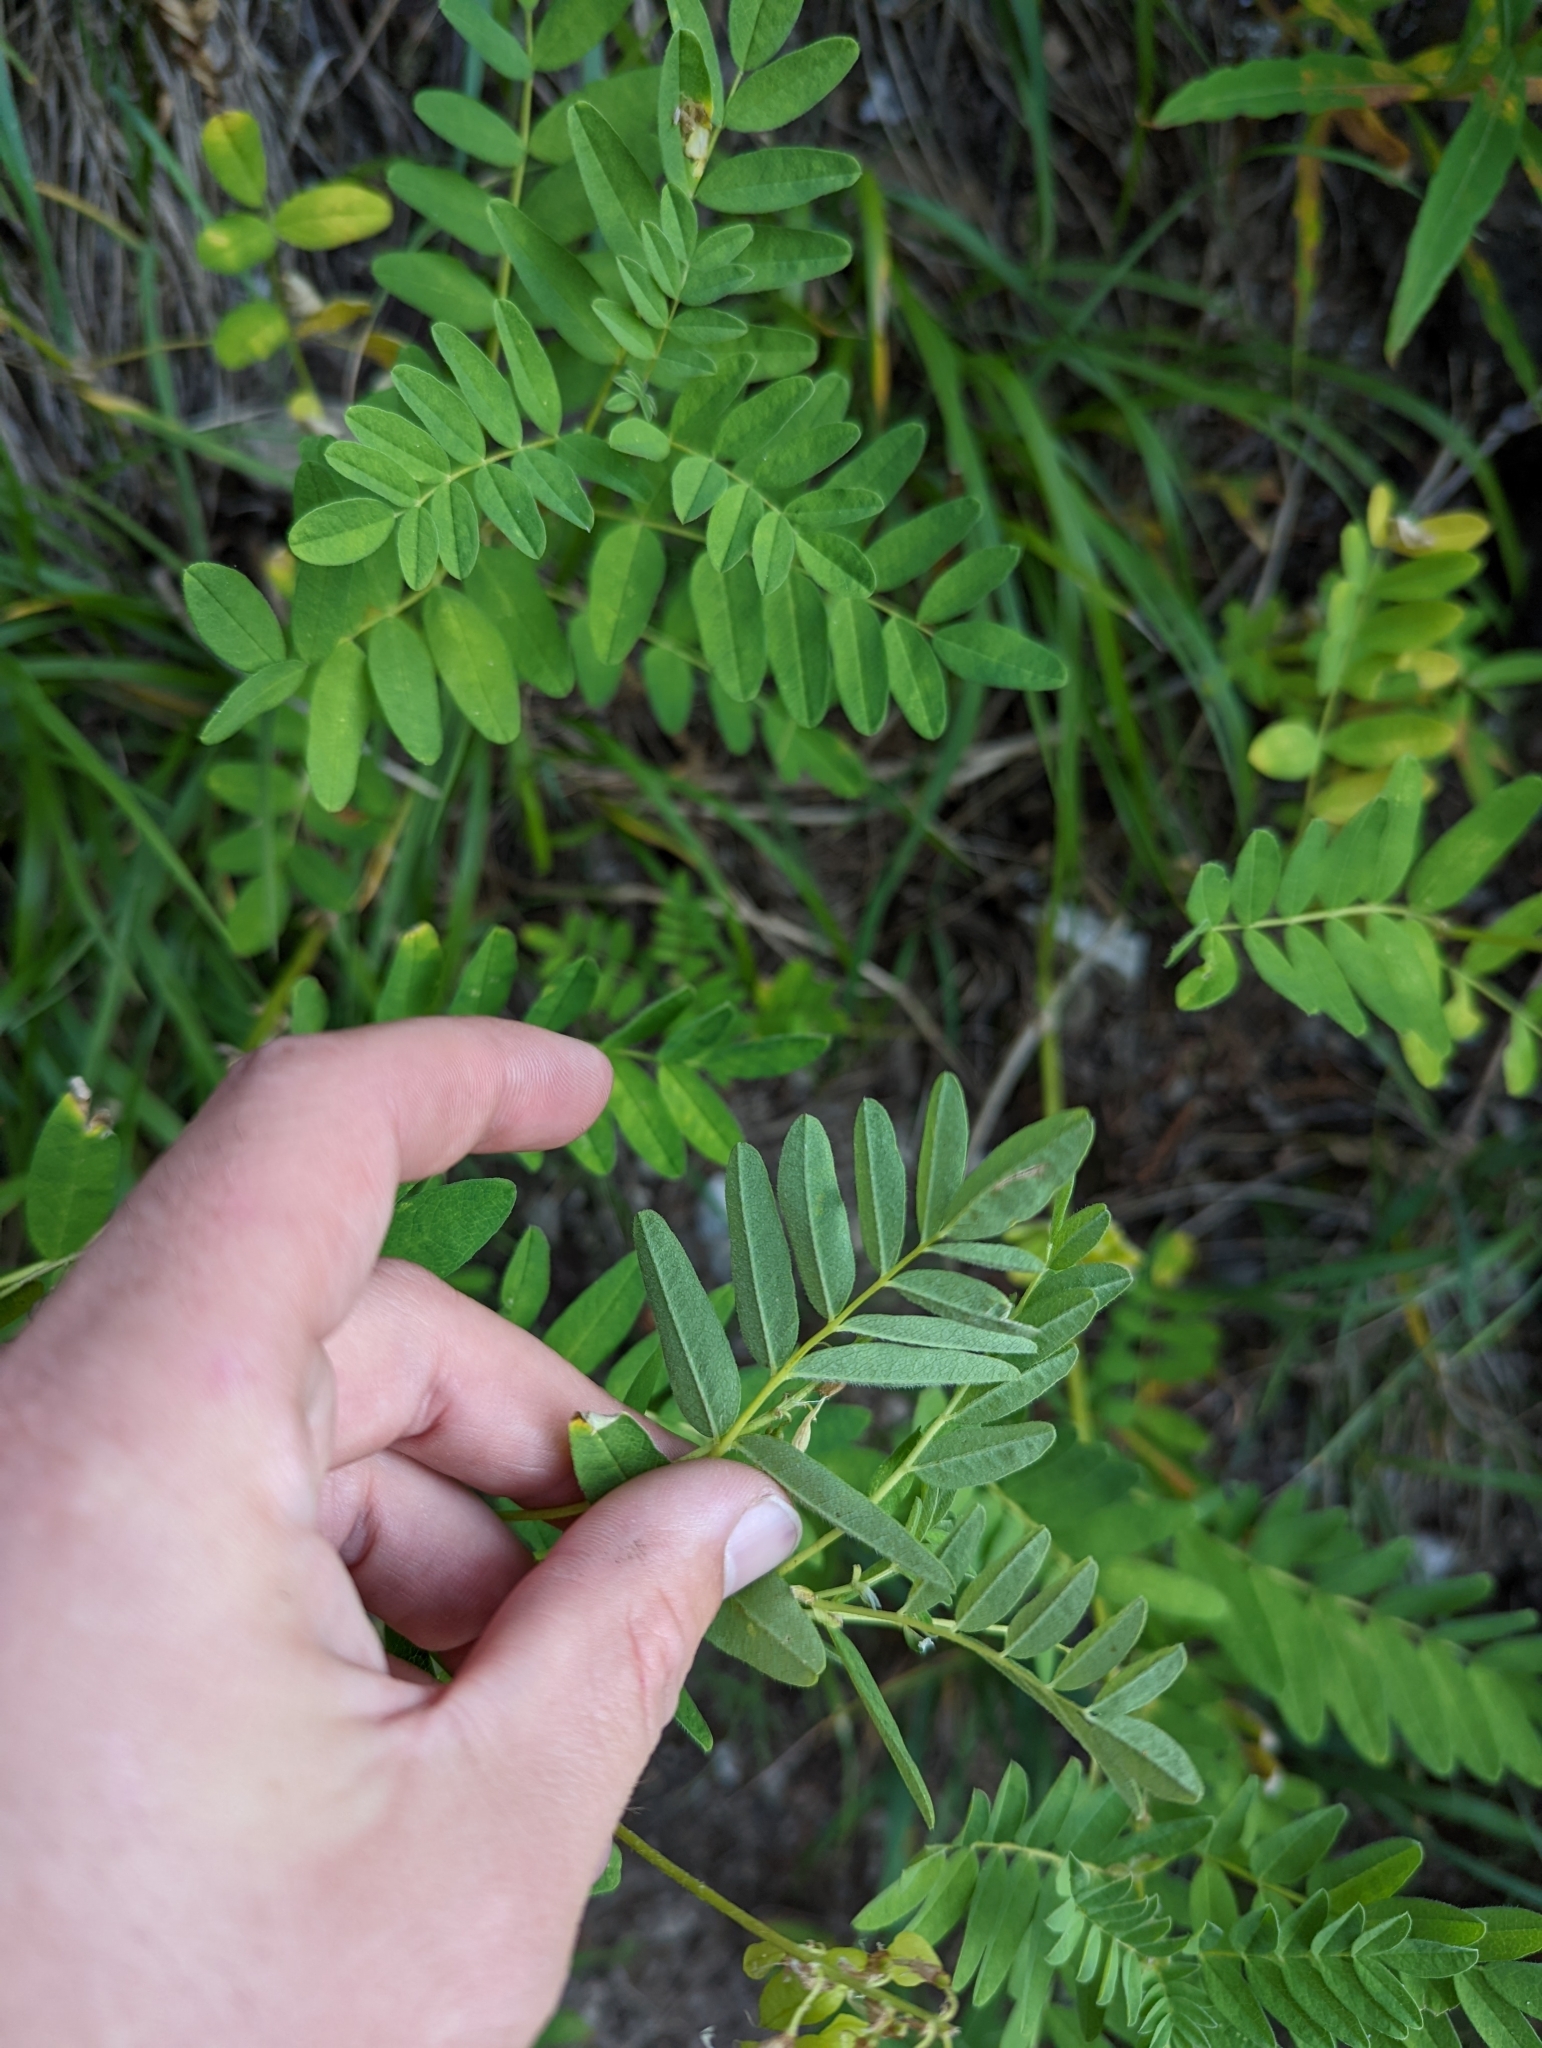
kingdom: Plantae
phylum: Tracheophyta
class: Magnoliopsida
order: Fabales
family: Fabaceae
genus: Astragalus
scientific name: Astragalus americanus
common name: American milk-vetch
